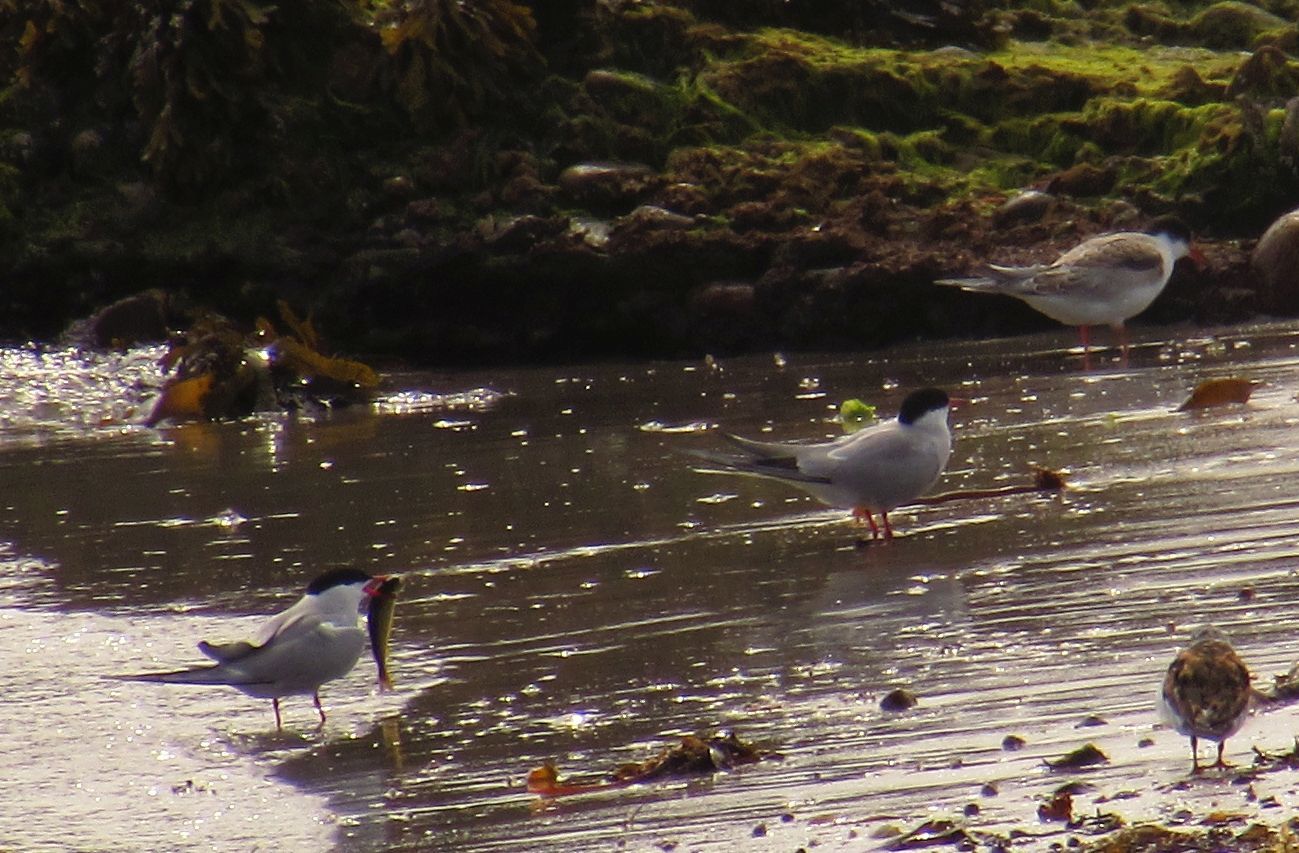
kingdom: Animalia
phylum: Chordata
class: Aves
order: Charadriiformes
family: Laridae
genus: Sterna
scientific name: Sterna hirundo
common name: Common tern
